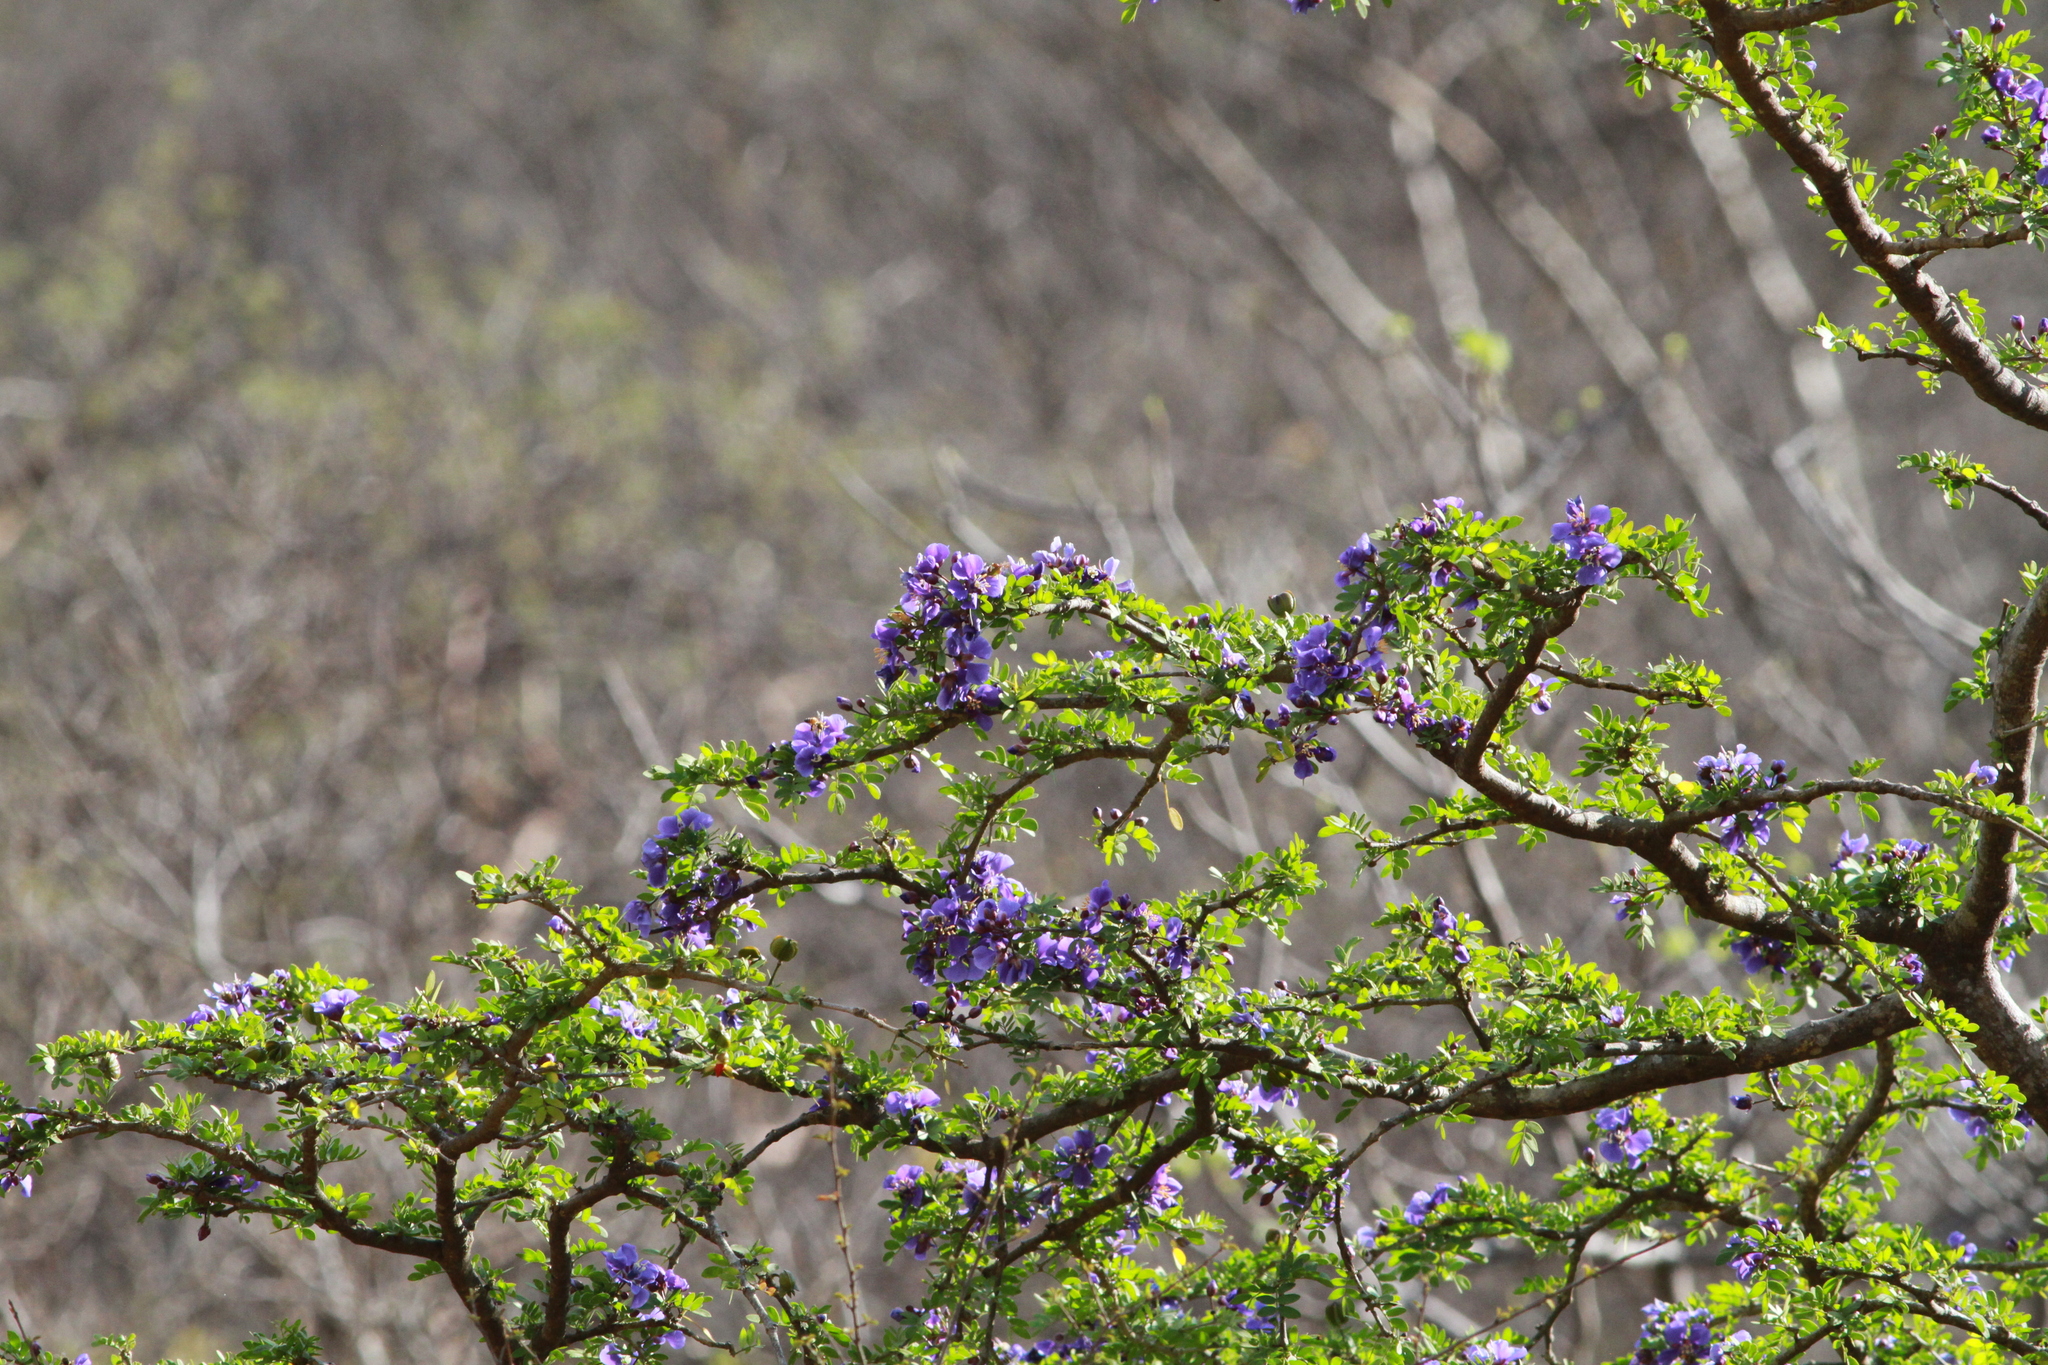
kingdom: Plantae
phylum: Tracheophyta
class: Magnoliopsida
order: Zygophyllales
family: Zygophyllaceae
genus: Guaiacum
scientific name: Guaiacum coulteri
